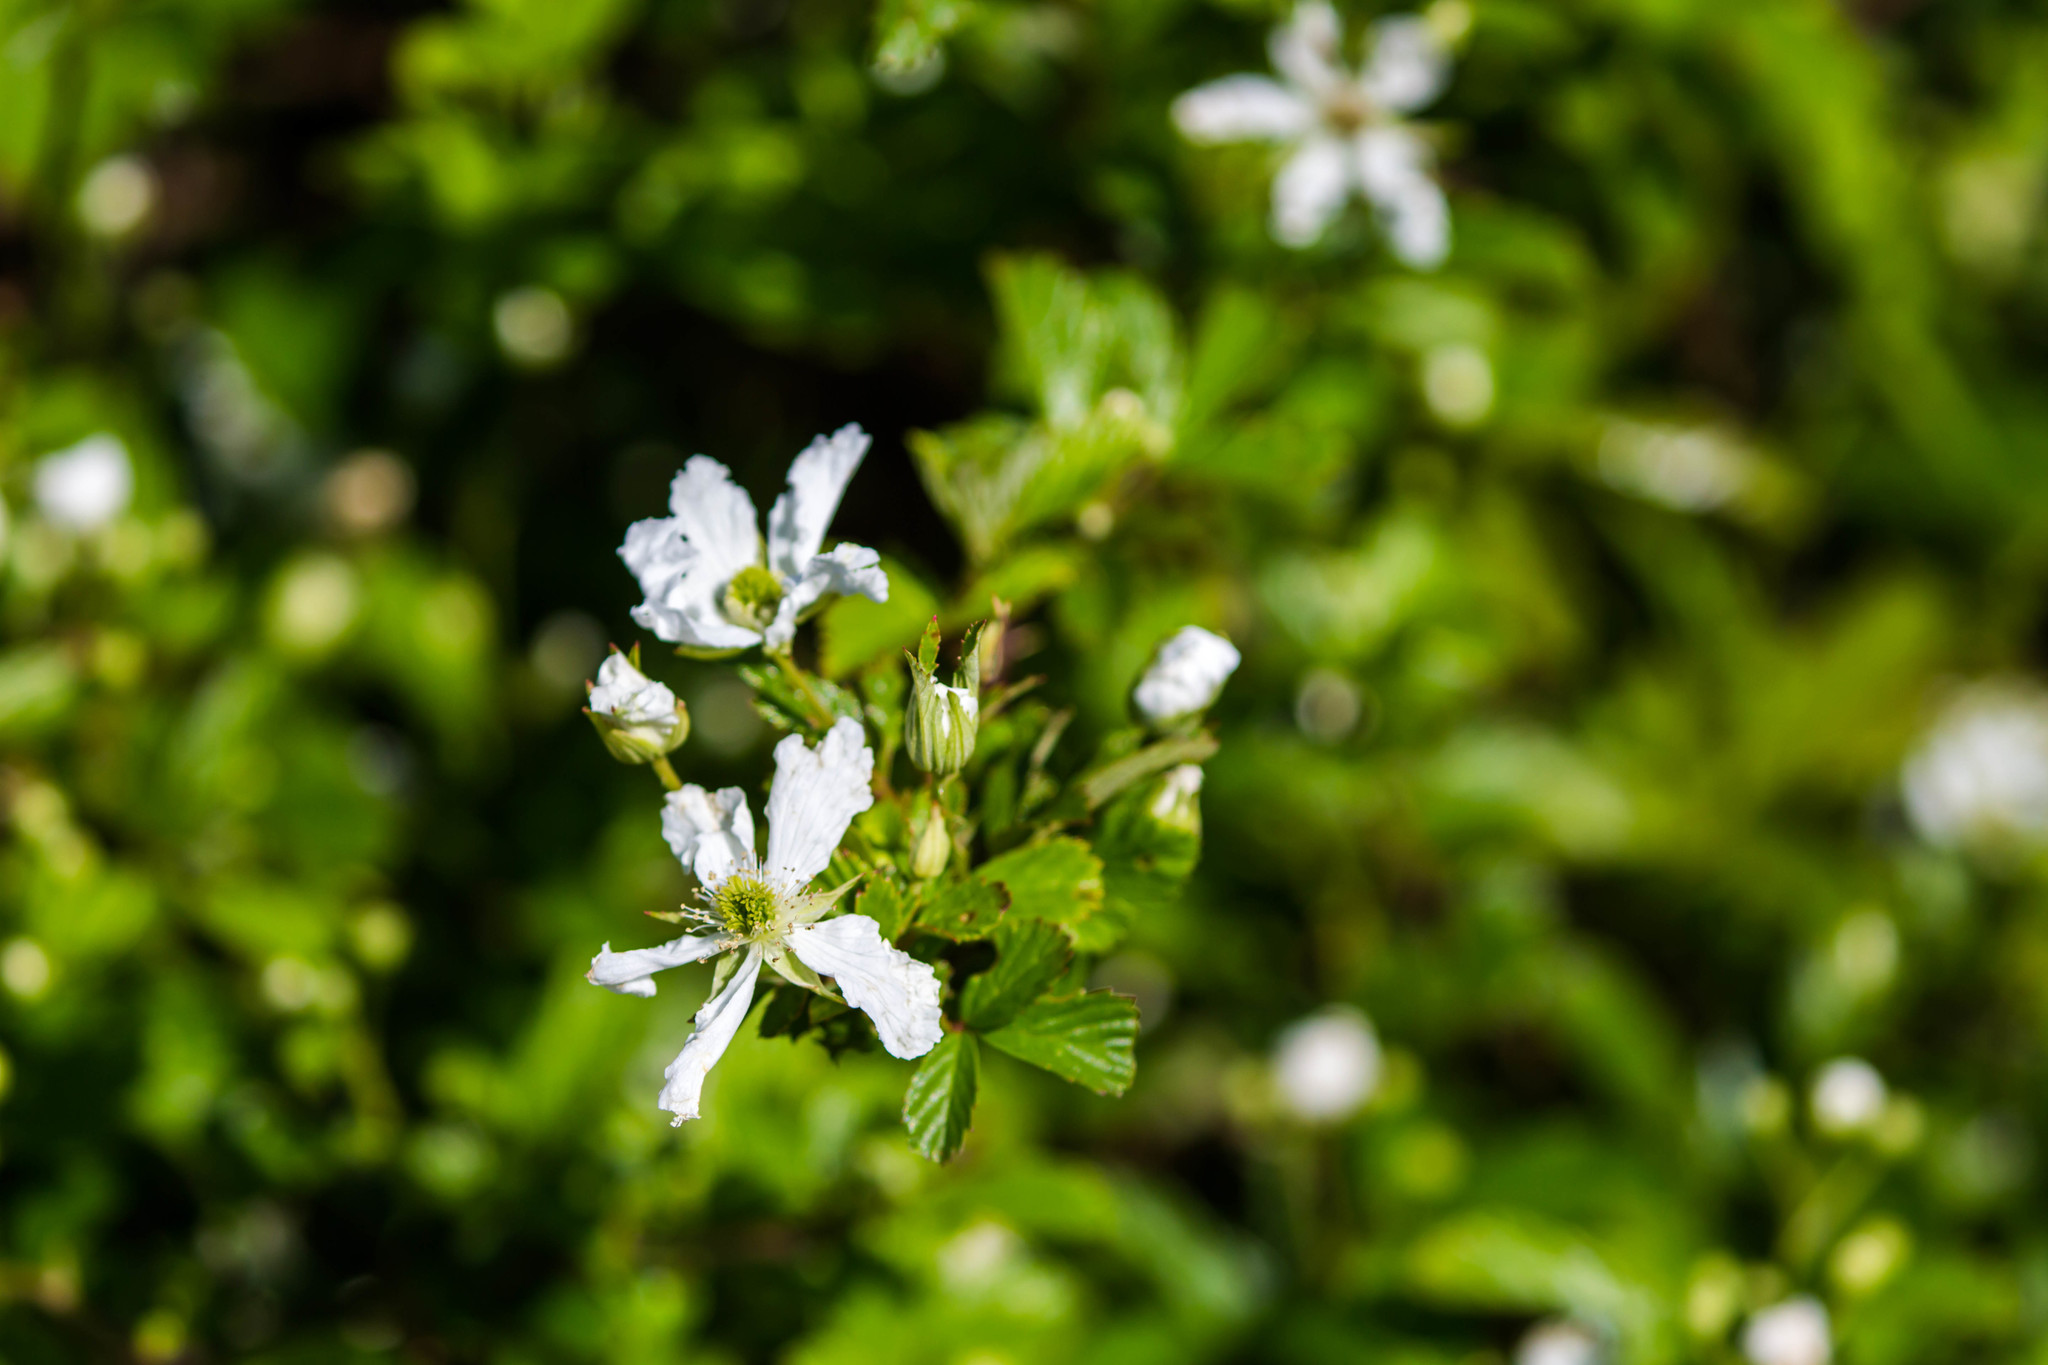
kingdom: Plantae
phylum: Tracheophyta
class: Magnoliopsida
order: Rosales
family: Rosaceae
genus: Rubus
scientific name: Rubus cuneifolius
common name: American bramble
